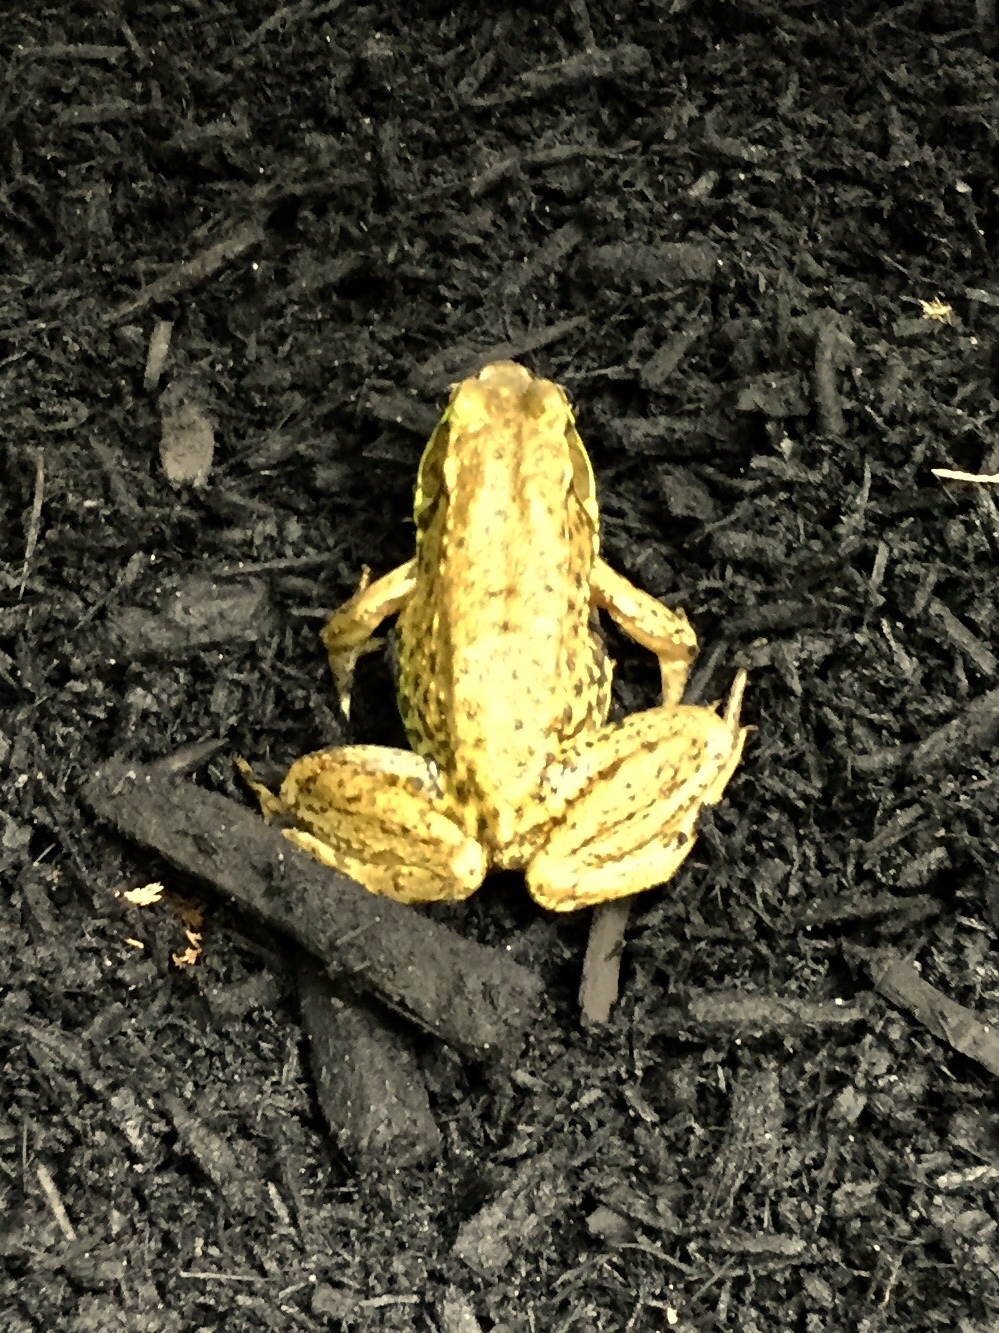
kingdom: Animalia
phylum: Chordata
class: Amphibia
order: Anura
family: Ranidae
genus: Lithobates
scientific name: Lithobates clamitans
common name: Green frog
